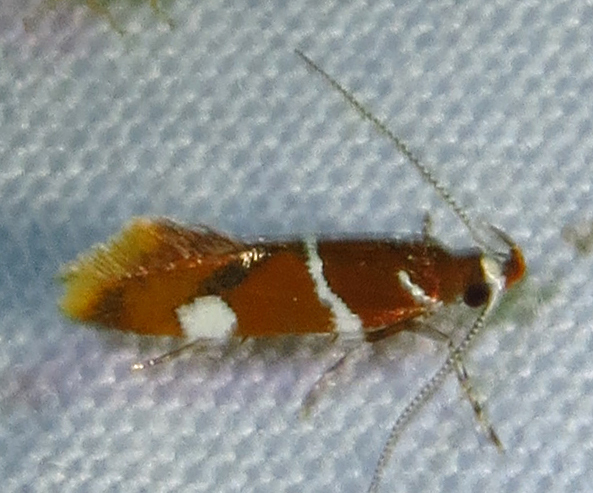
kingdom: Animalia
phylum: Arthropoda
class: Insecta
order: Lepidoptera
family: Oecophoridae
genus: Promalactis
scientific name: Promalactis suzukiella
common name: Moth
